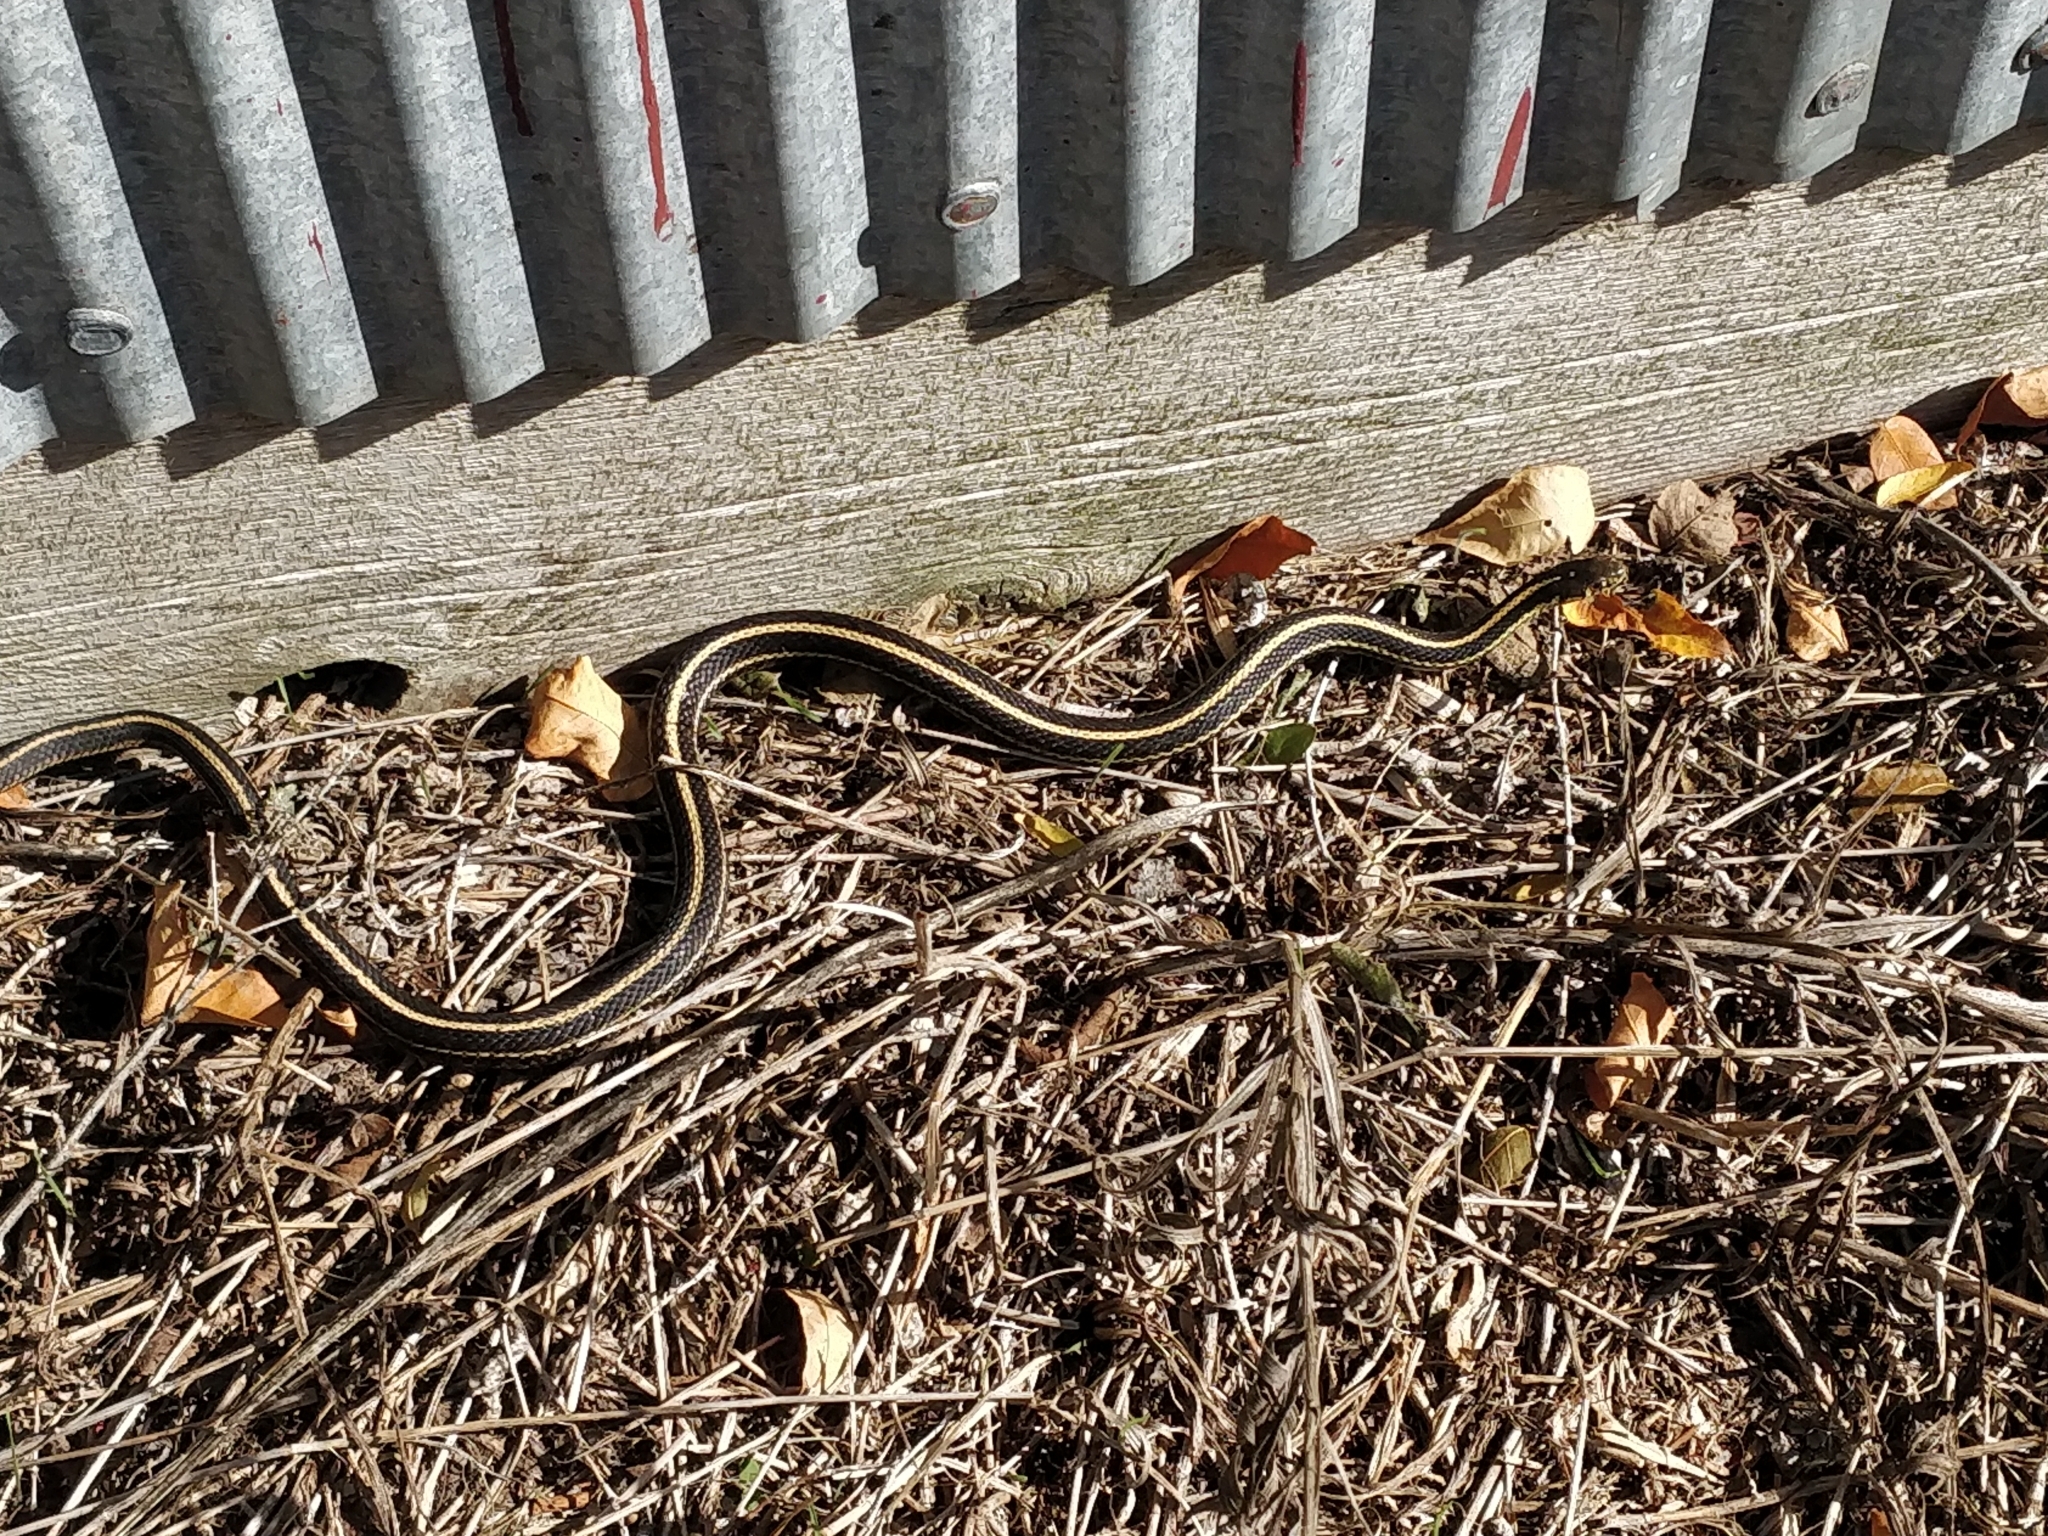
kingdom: Animalia
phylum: Chordata
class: Squamata
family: Colubridae
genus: Thamnophis
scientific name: Thamnophis radix
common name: Plains garter snake
